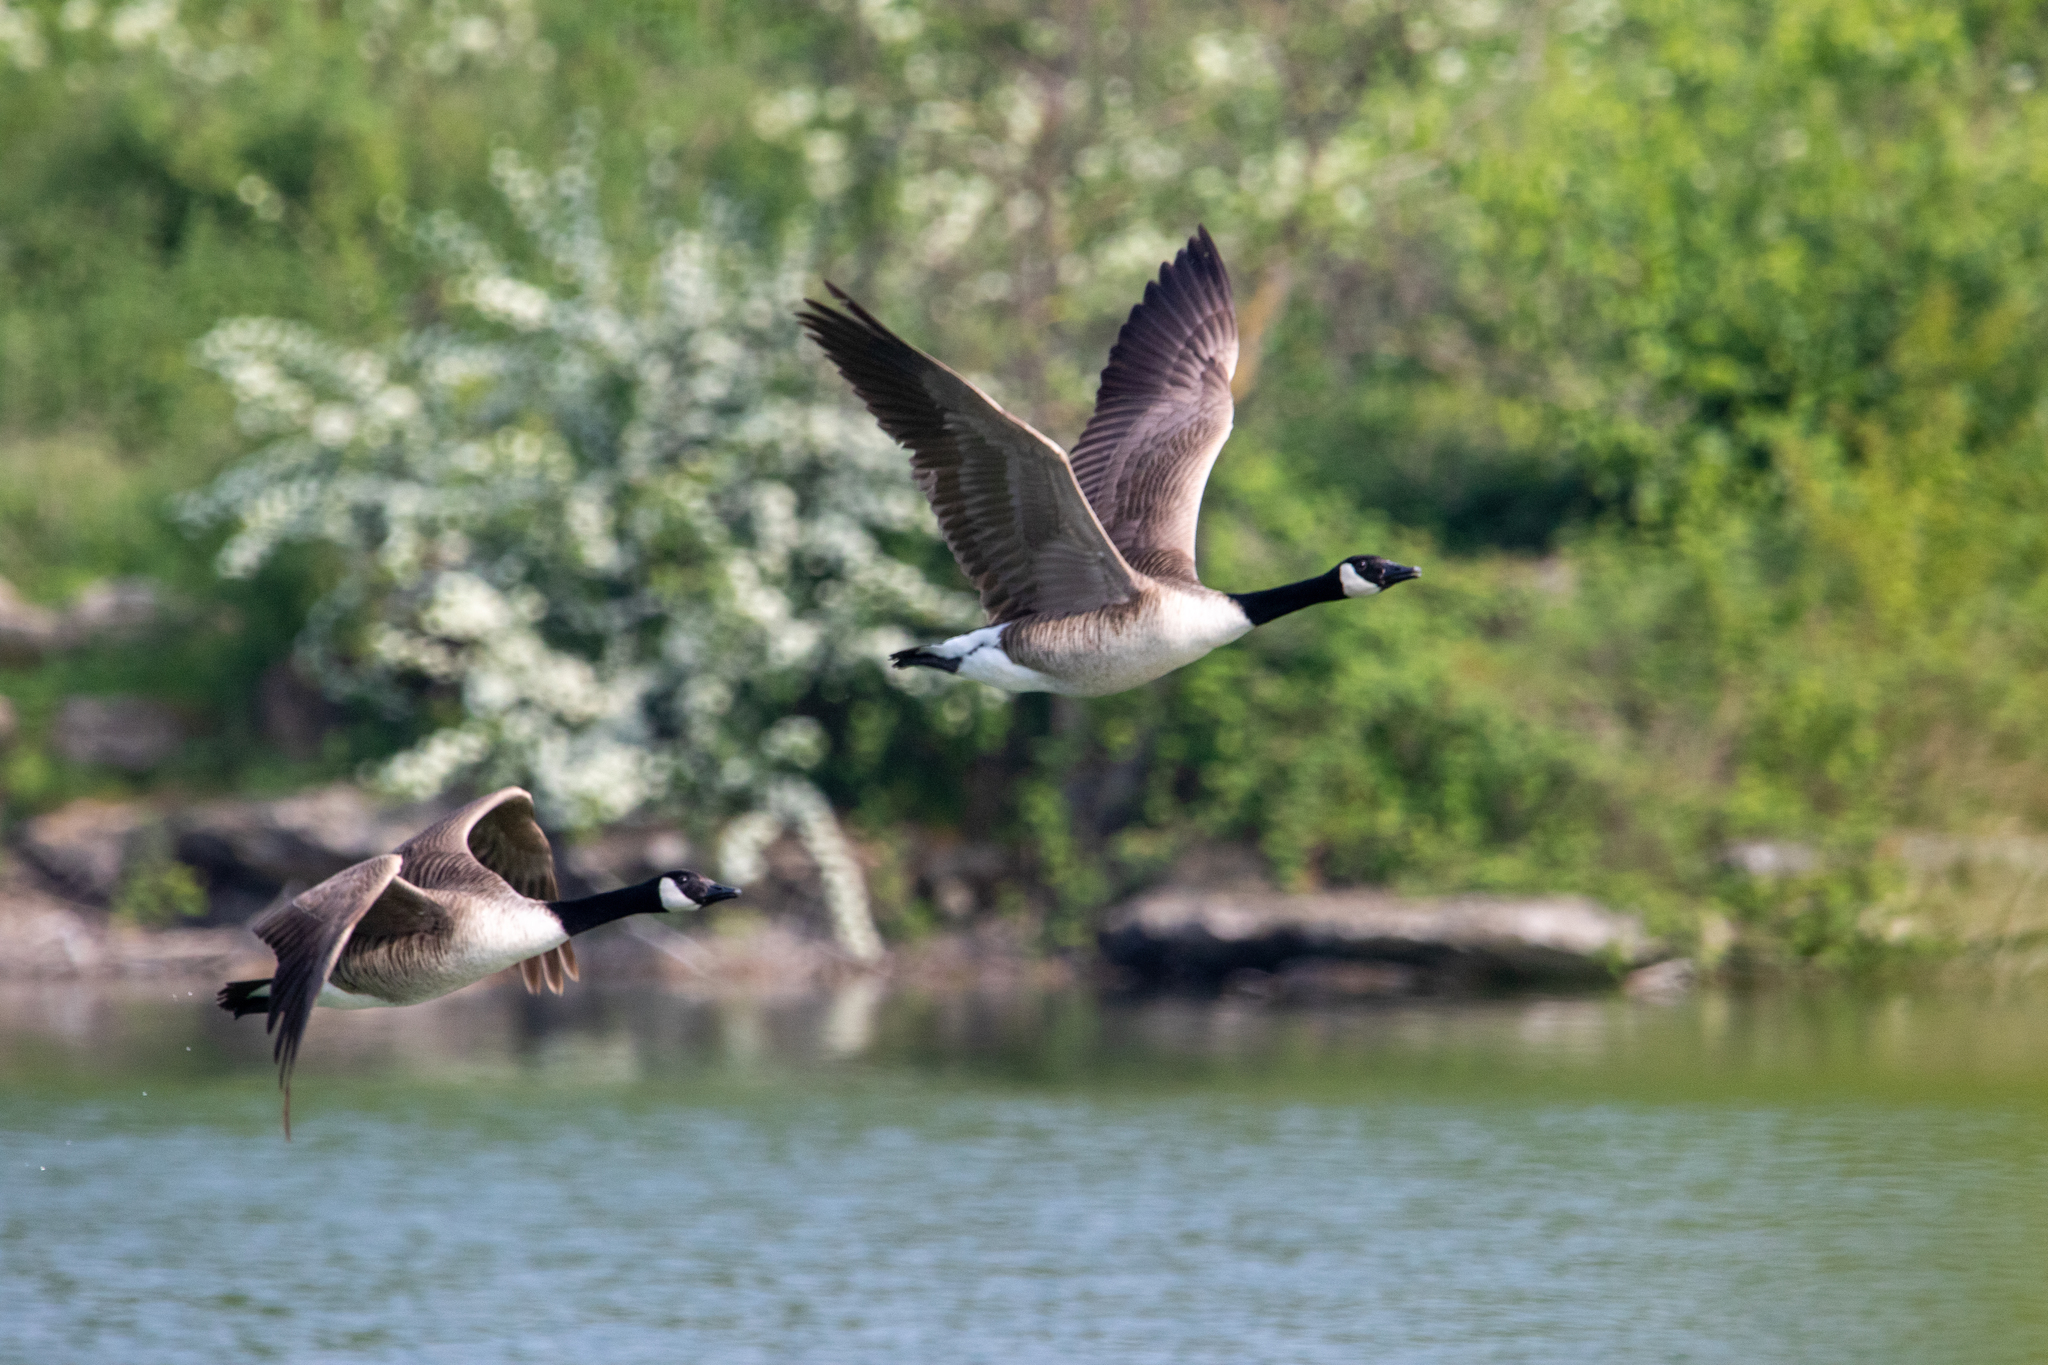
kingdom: Animalia
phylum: Chordata
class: Aves
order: Anseriformes
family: Anatidae
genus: Branta
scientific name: Branta canadensis
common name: Canada goose
